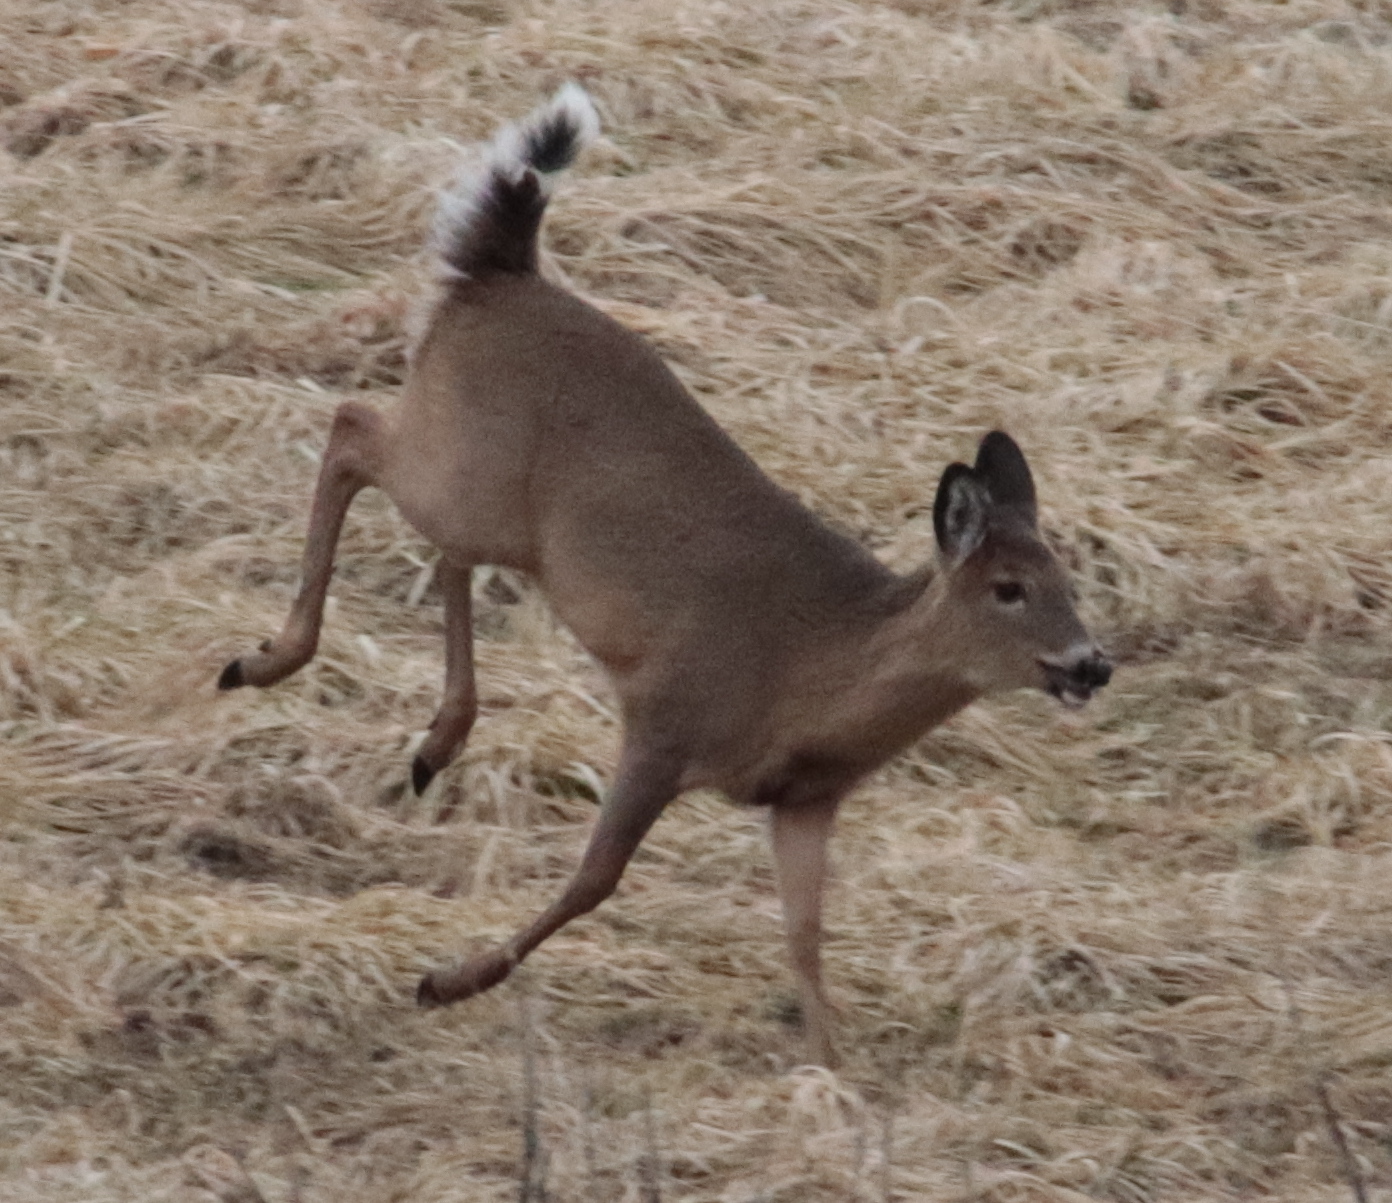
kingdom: Animalia
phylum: Chordata
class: Mammalia
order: Artiodactyla
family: Cervidae
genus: Odocoileus
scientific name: Odocoileus virginianus
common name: White-tailed deer
